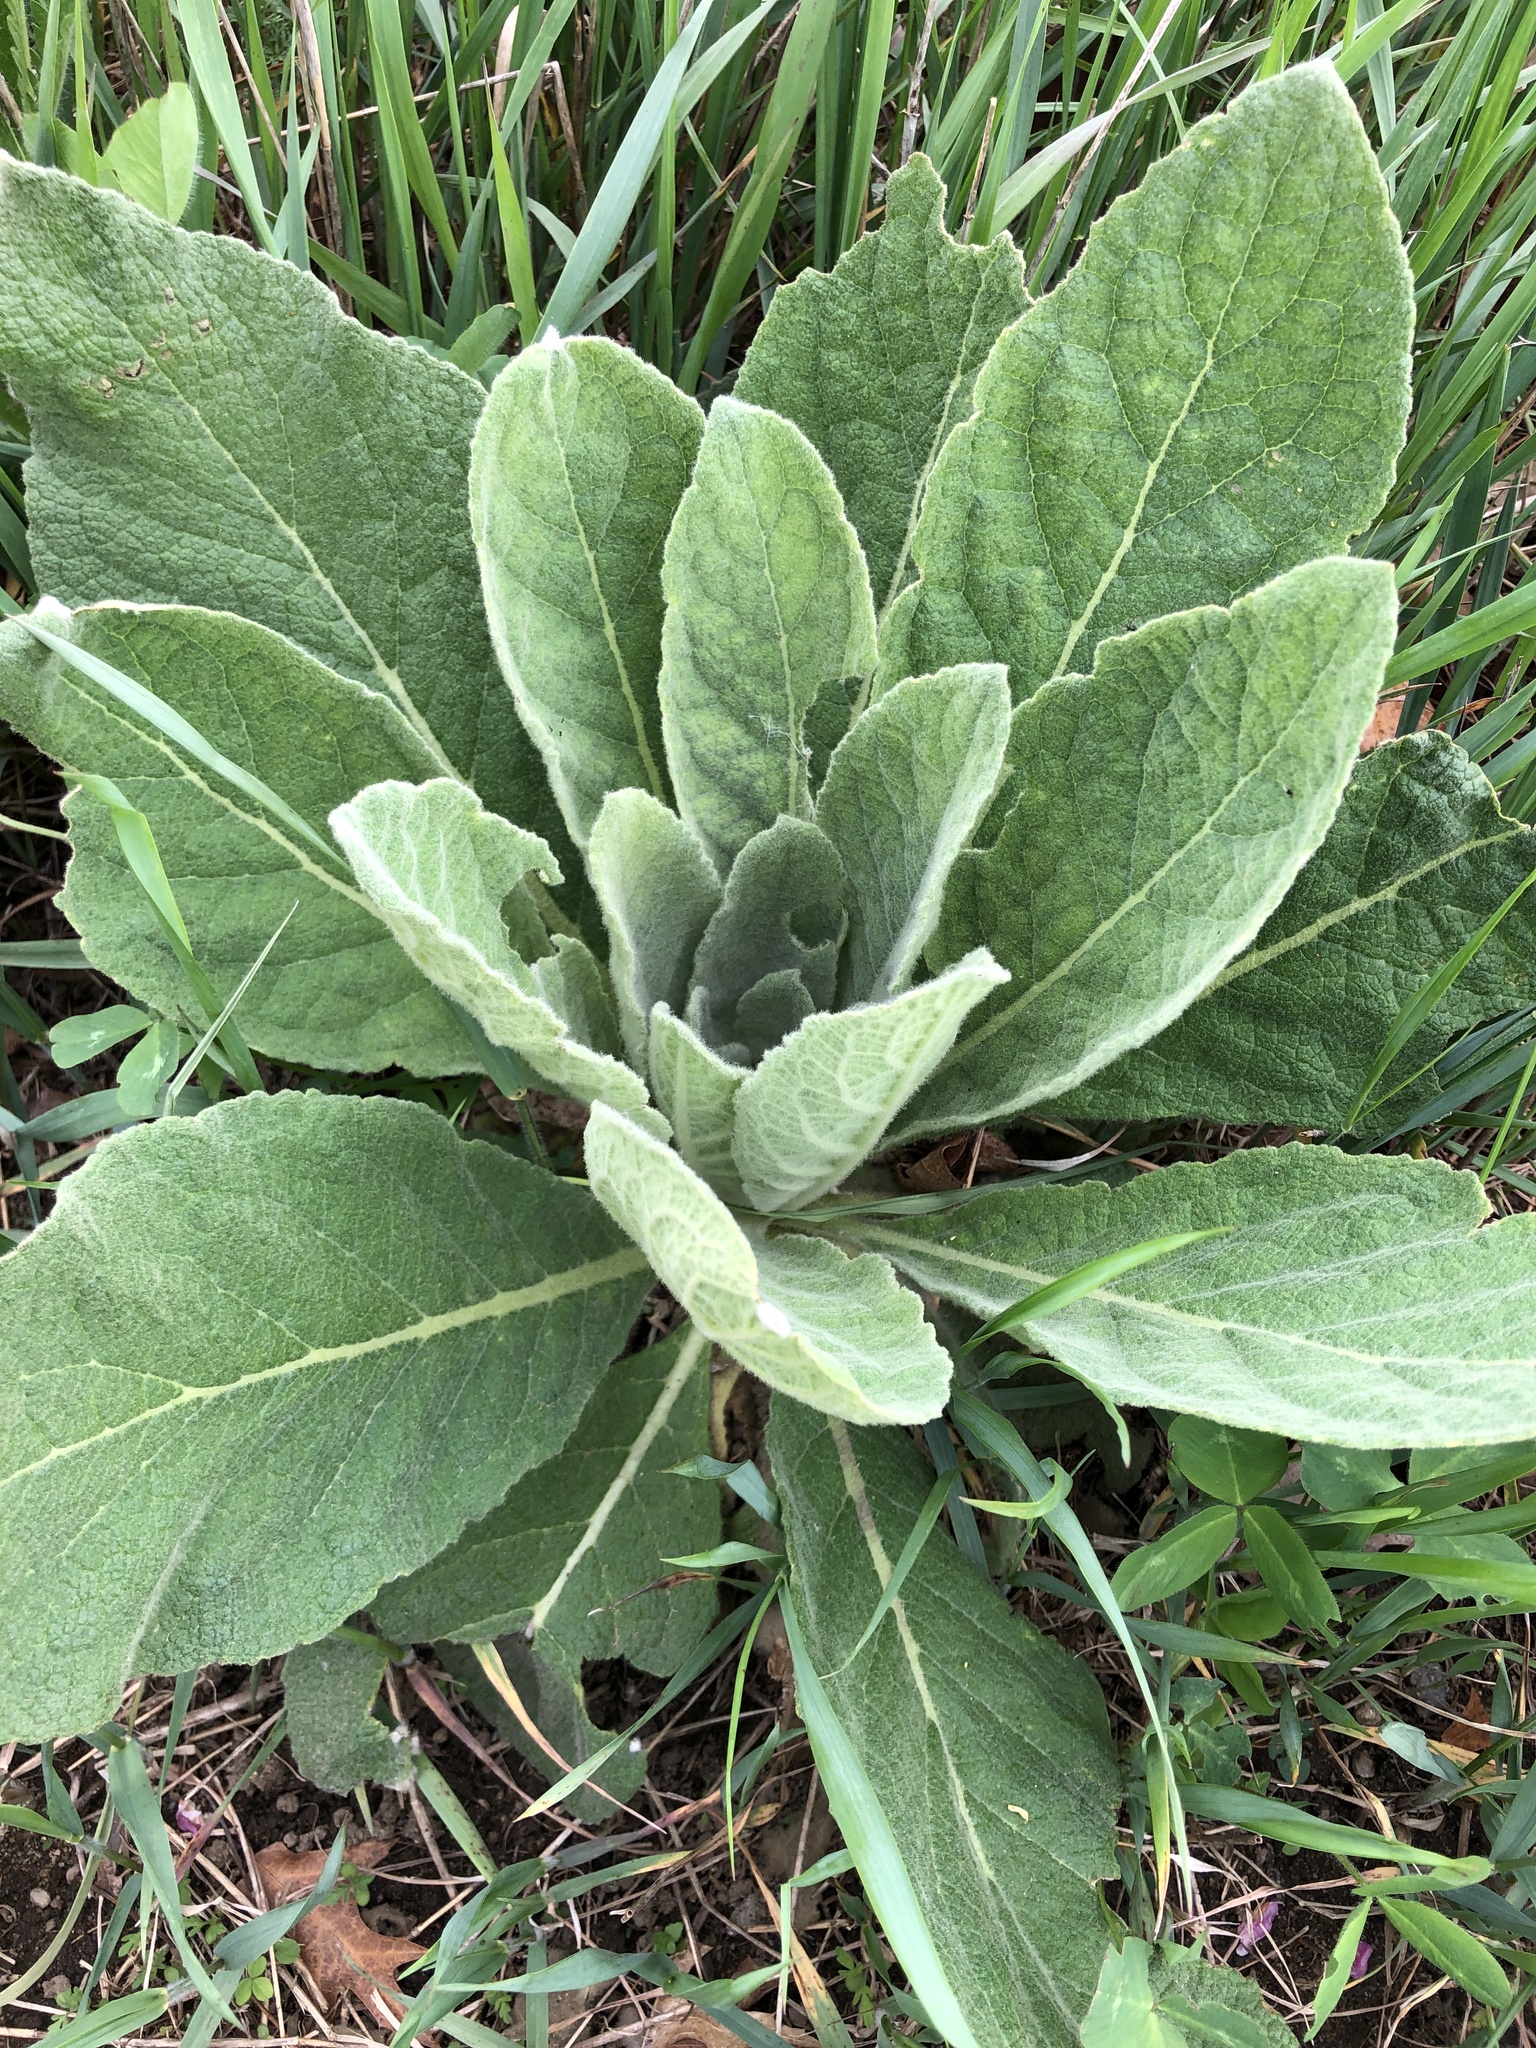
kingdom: Plantae
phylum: Tracheophyta
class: Magnoliopsida
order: Lamiales
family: Scrophulariaceae
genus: Verbascum
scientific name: Verbascum thapsus
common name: Common mullein
